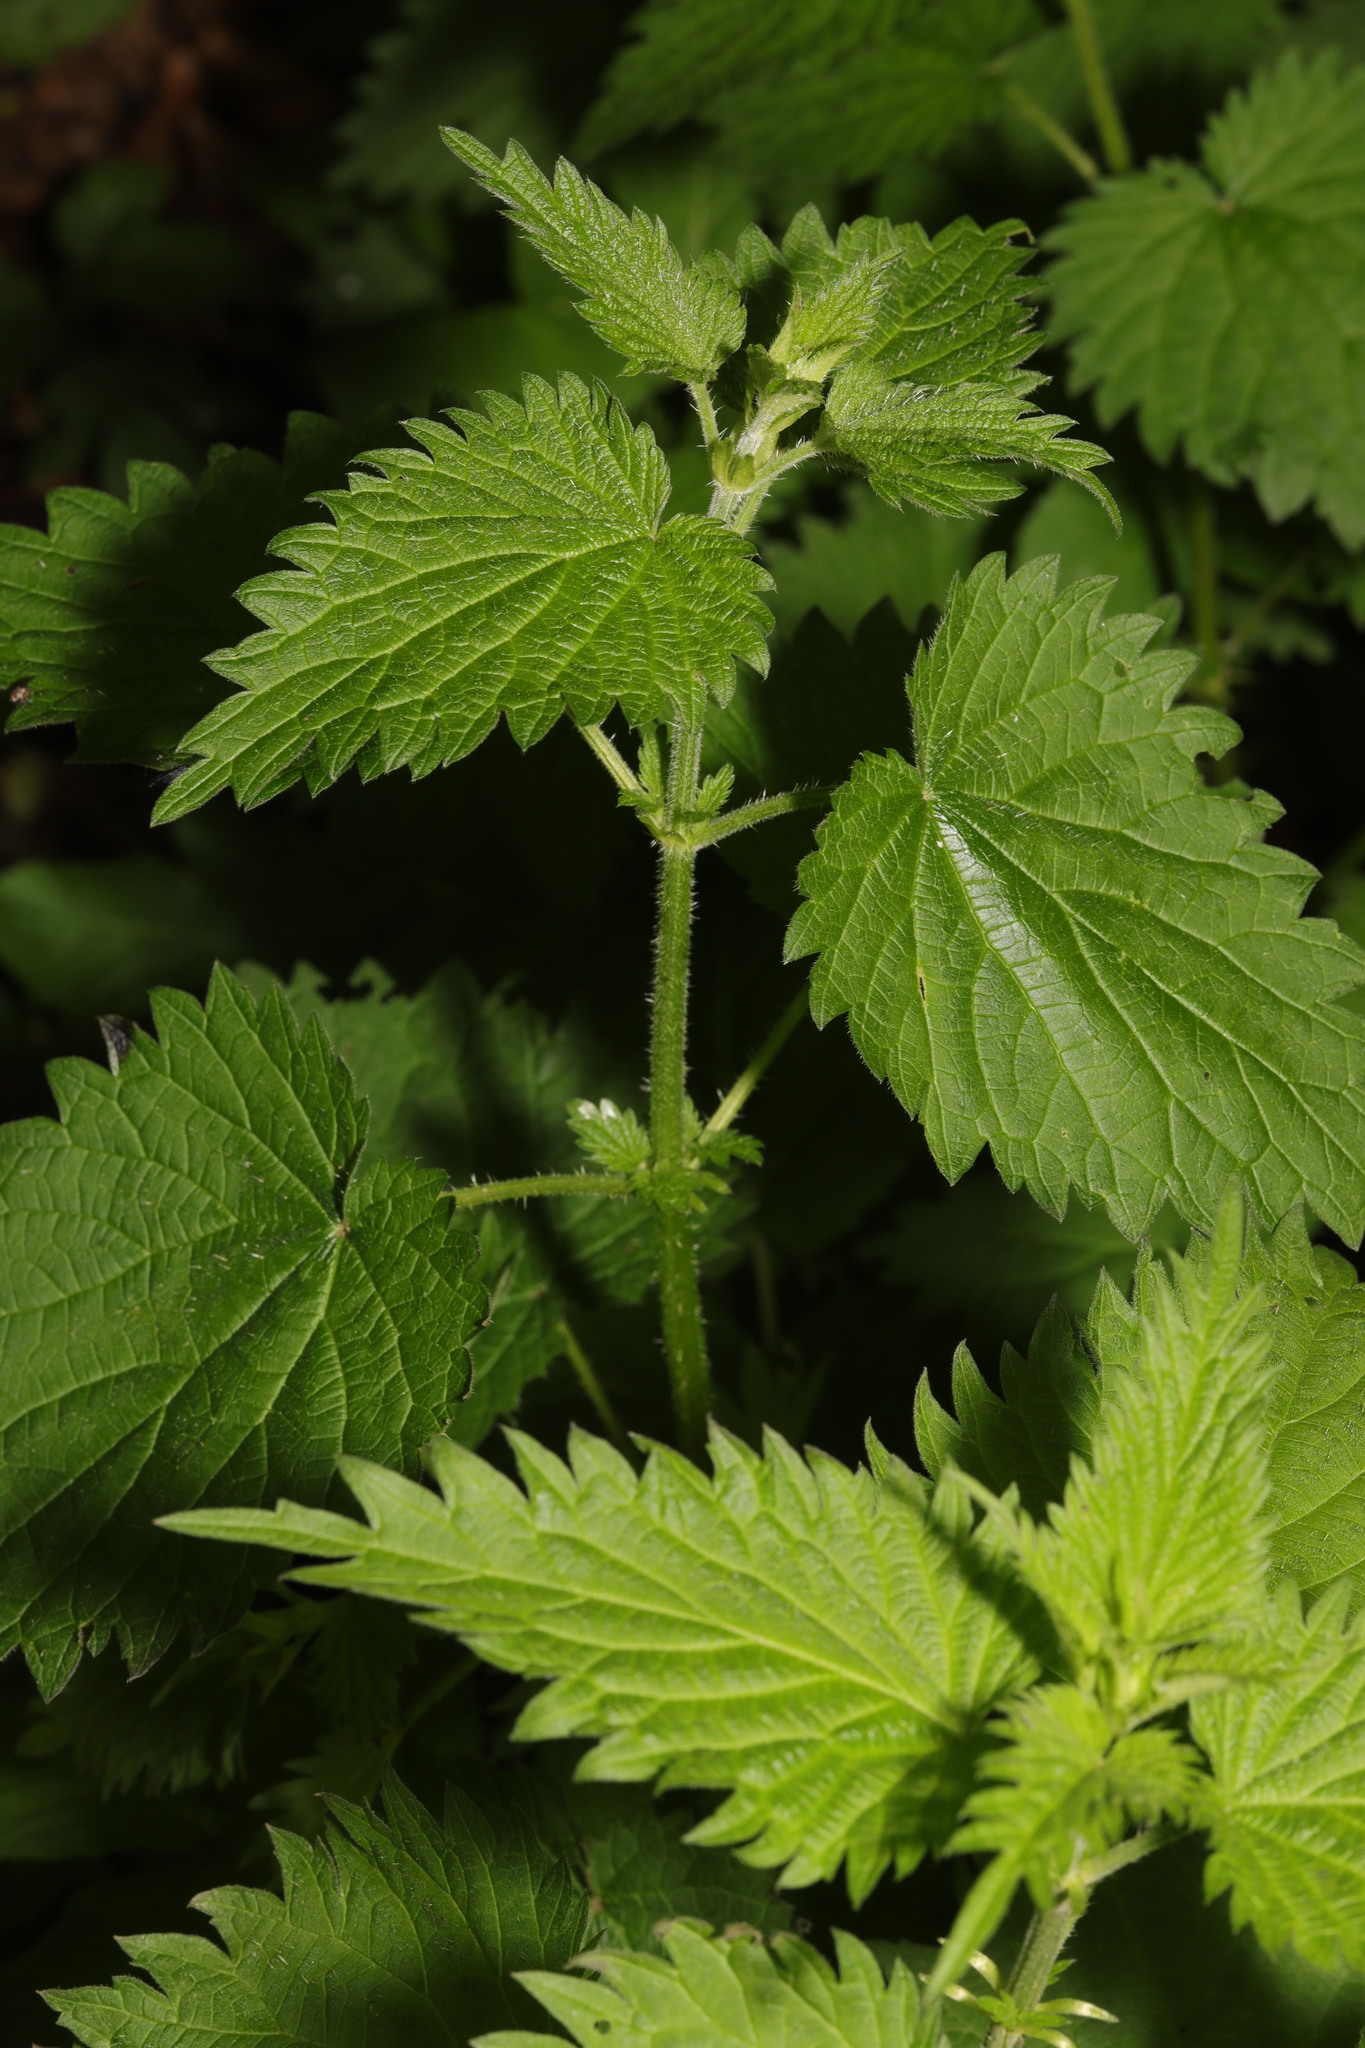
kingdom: Plantae
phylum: Tracheophyta
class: Magnoliopsida
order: Rosales
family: Urticaceae
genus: Urtica
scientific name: Urtica dioica
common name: Common nettle
